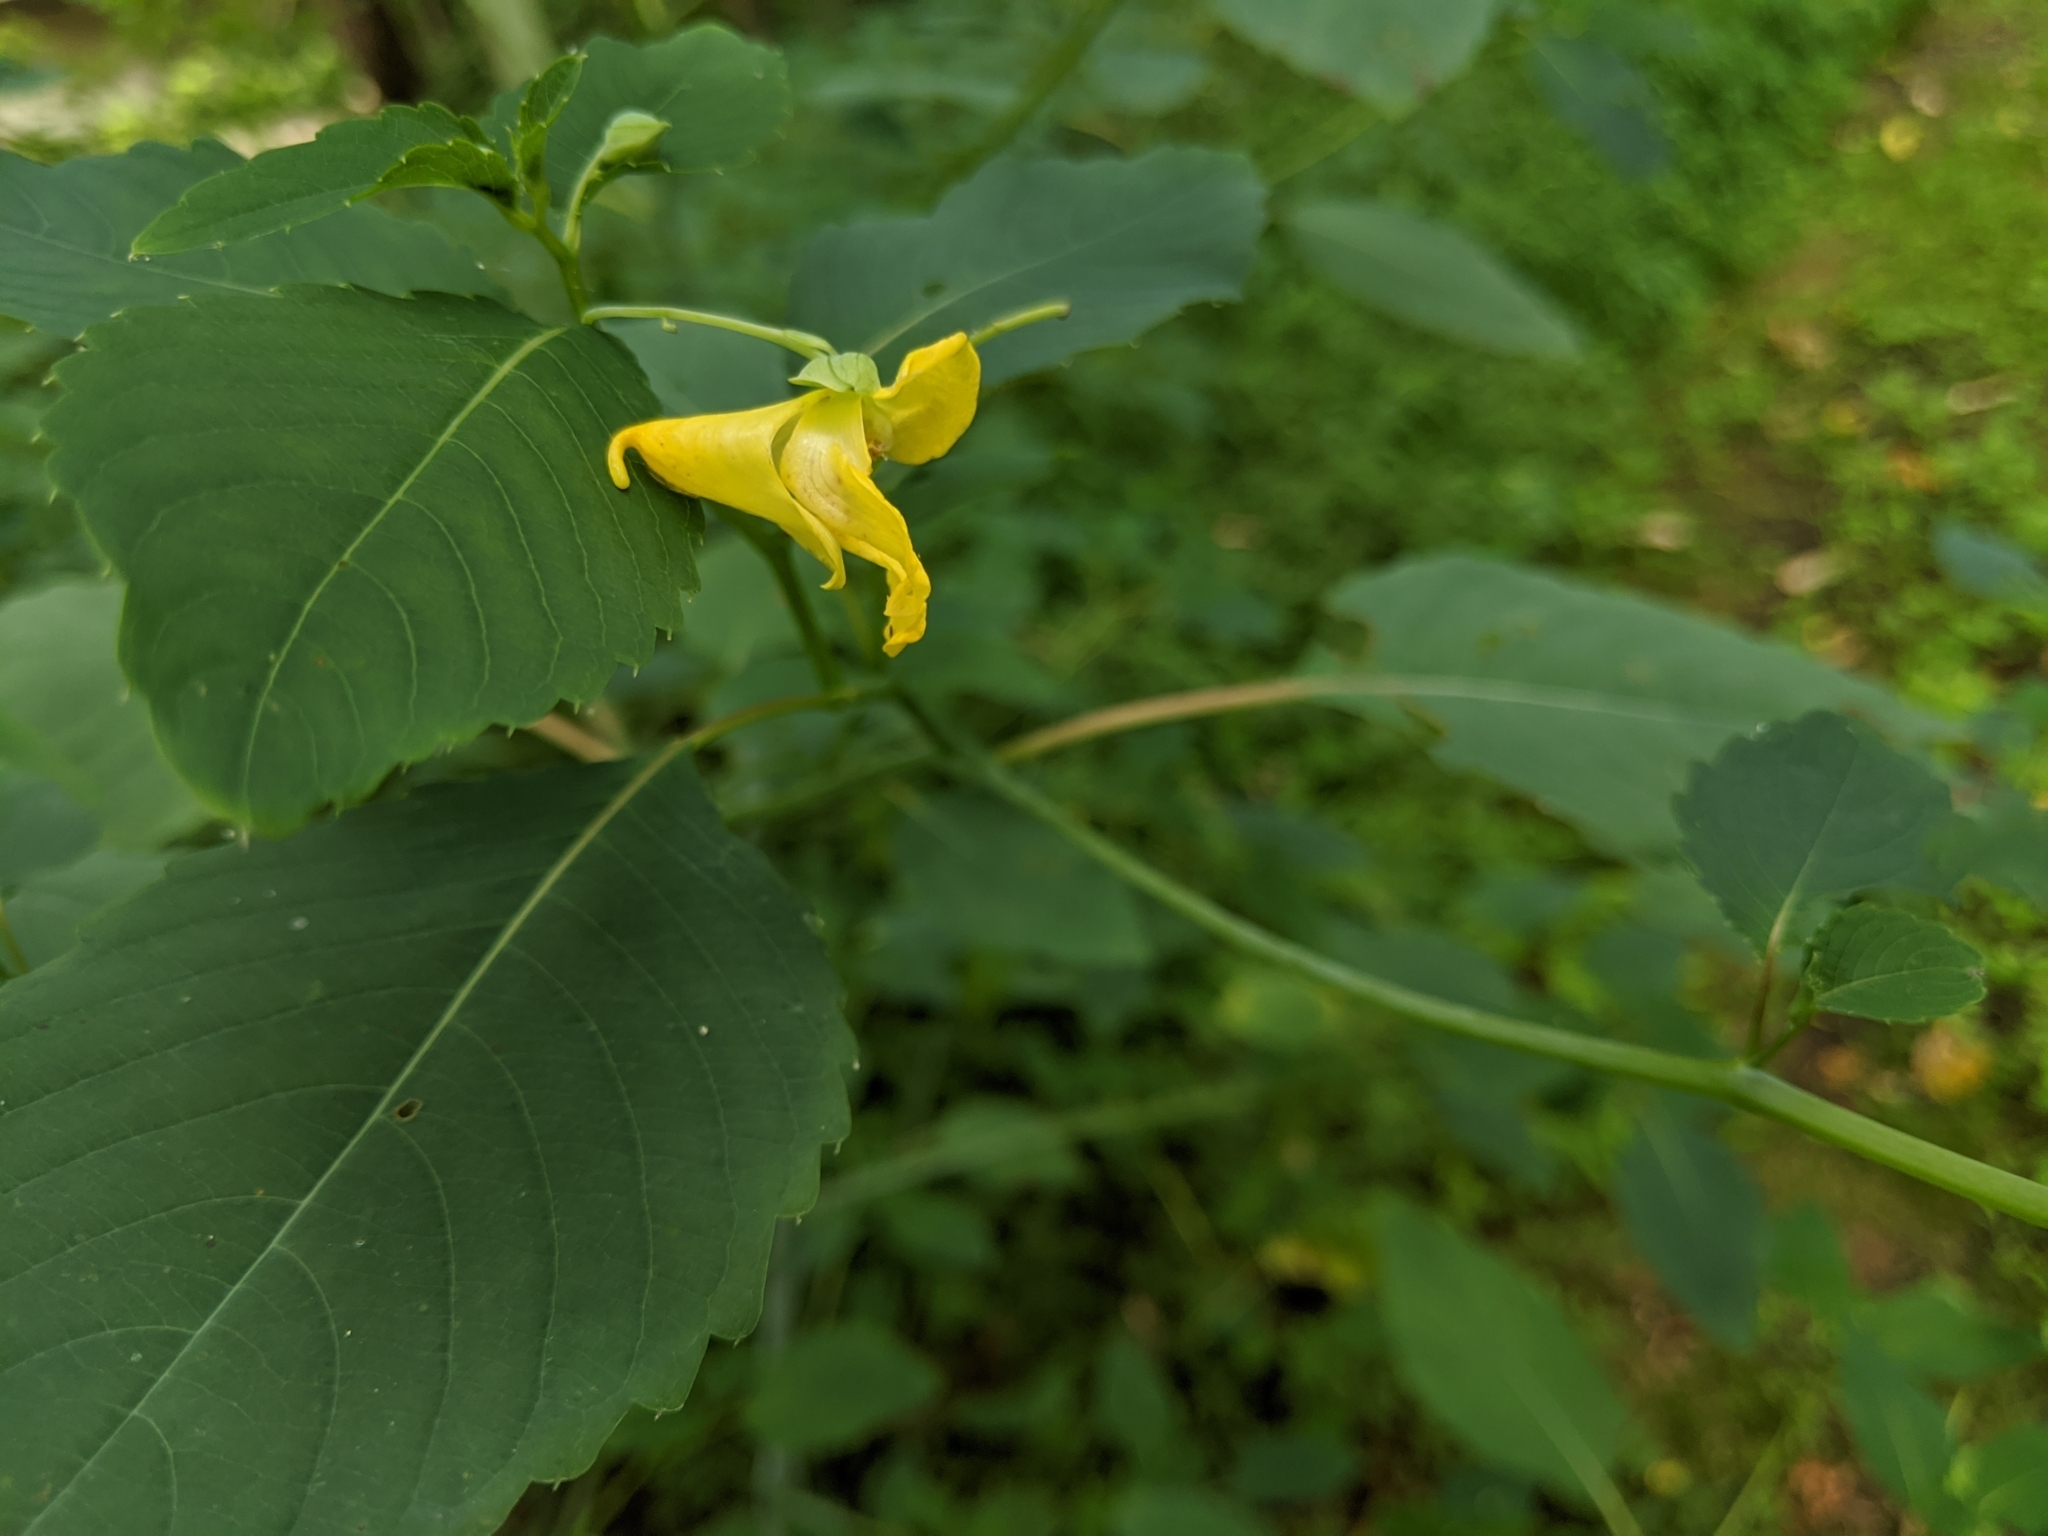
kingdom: Plantae
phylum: Tracheophyta
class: Magnoliopsida
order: Ericales
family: Balsaminaceae
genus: Impatiens
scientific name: Impatiens pallida
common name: Pale snapweed
